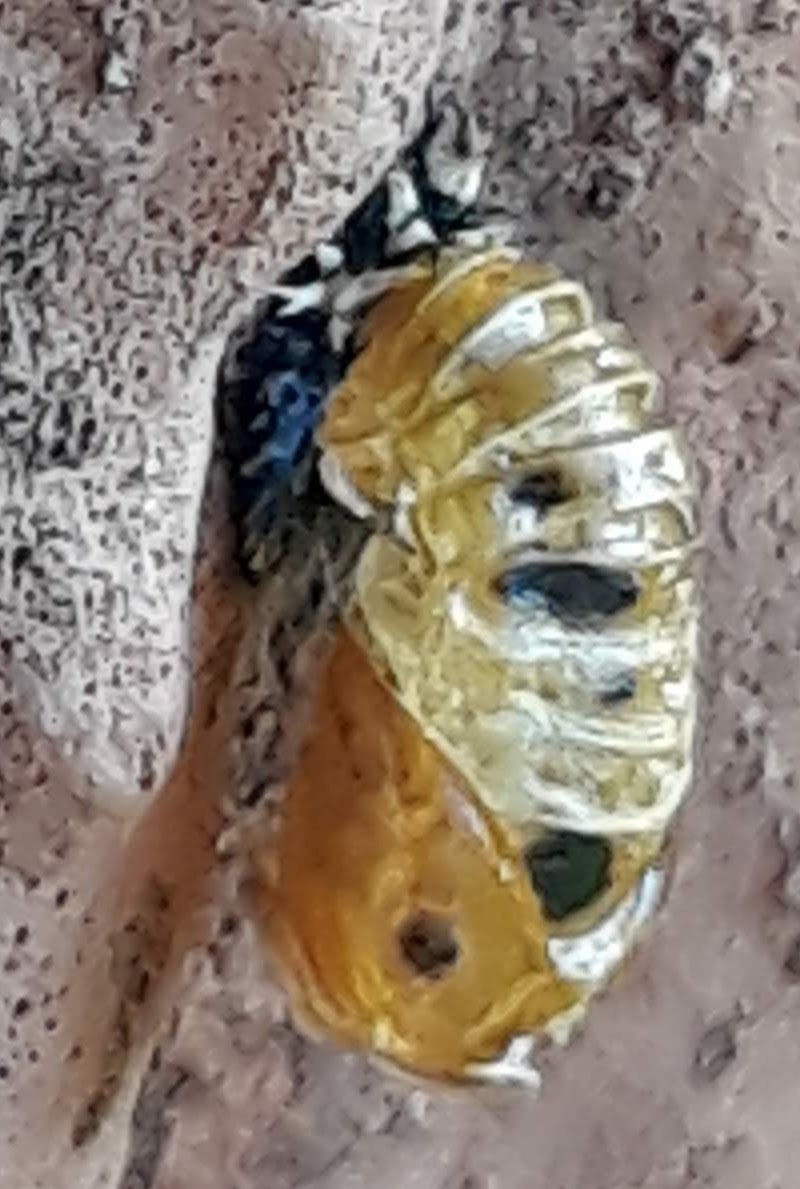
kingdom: Animalia
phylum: Arthropoda
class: Insecta
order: Coleoptera
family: Coccinellidae
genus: Harmonia
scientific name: Harmonia axyridis
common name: Harlequin ladybird
